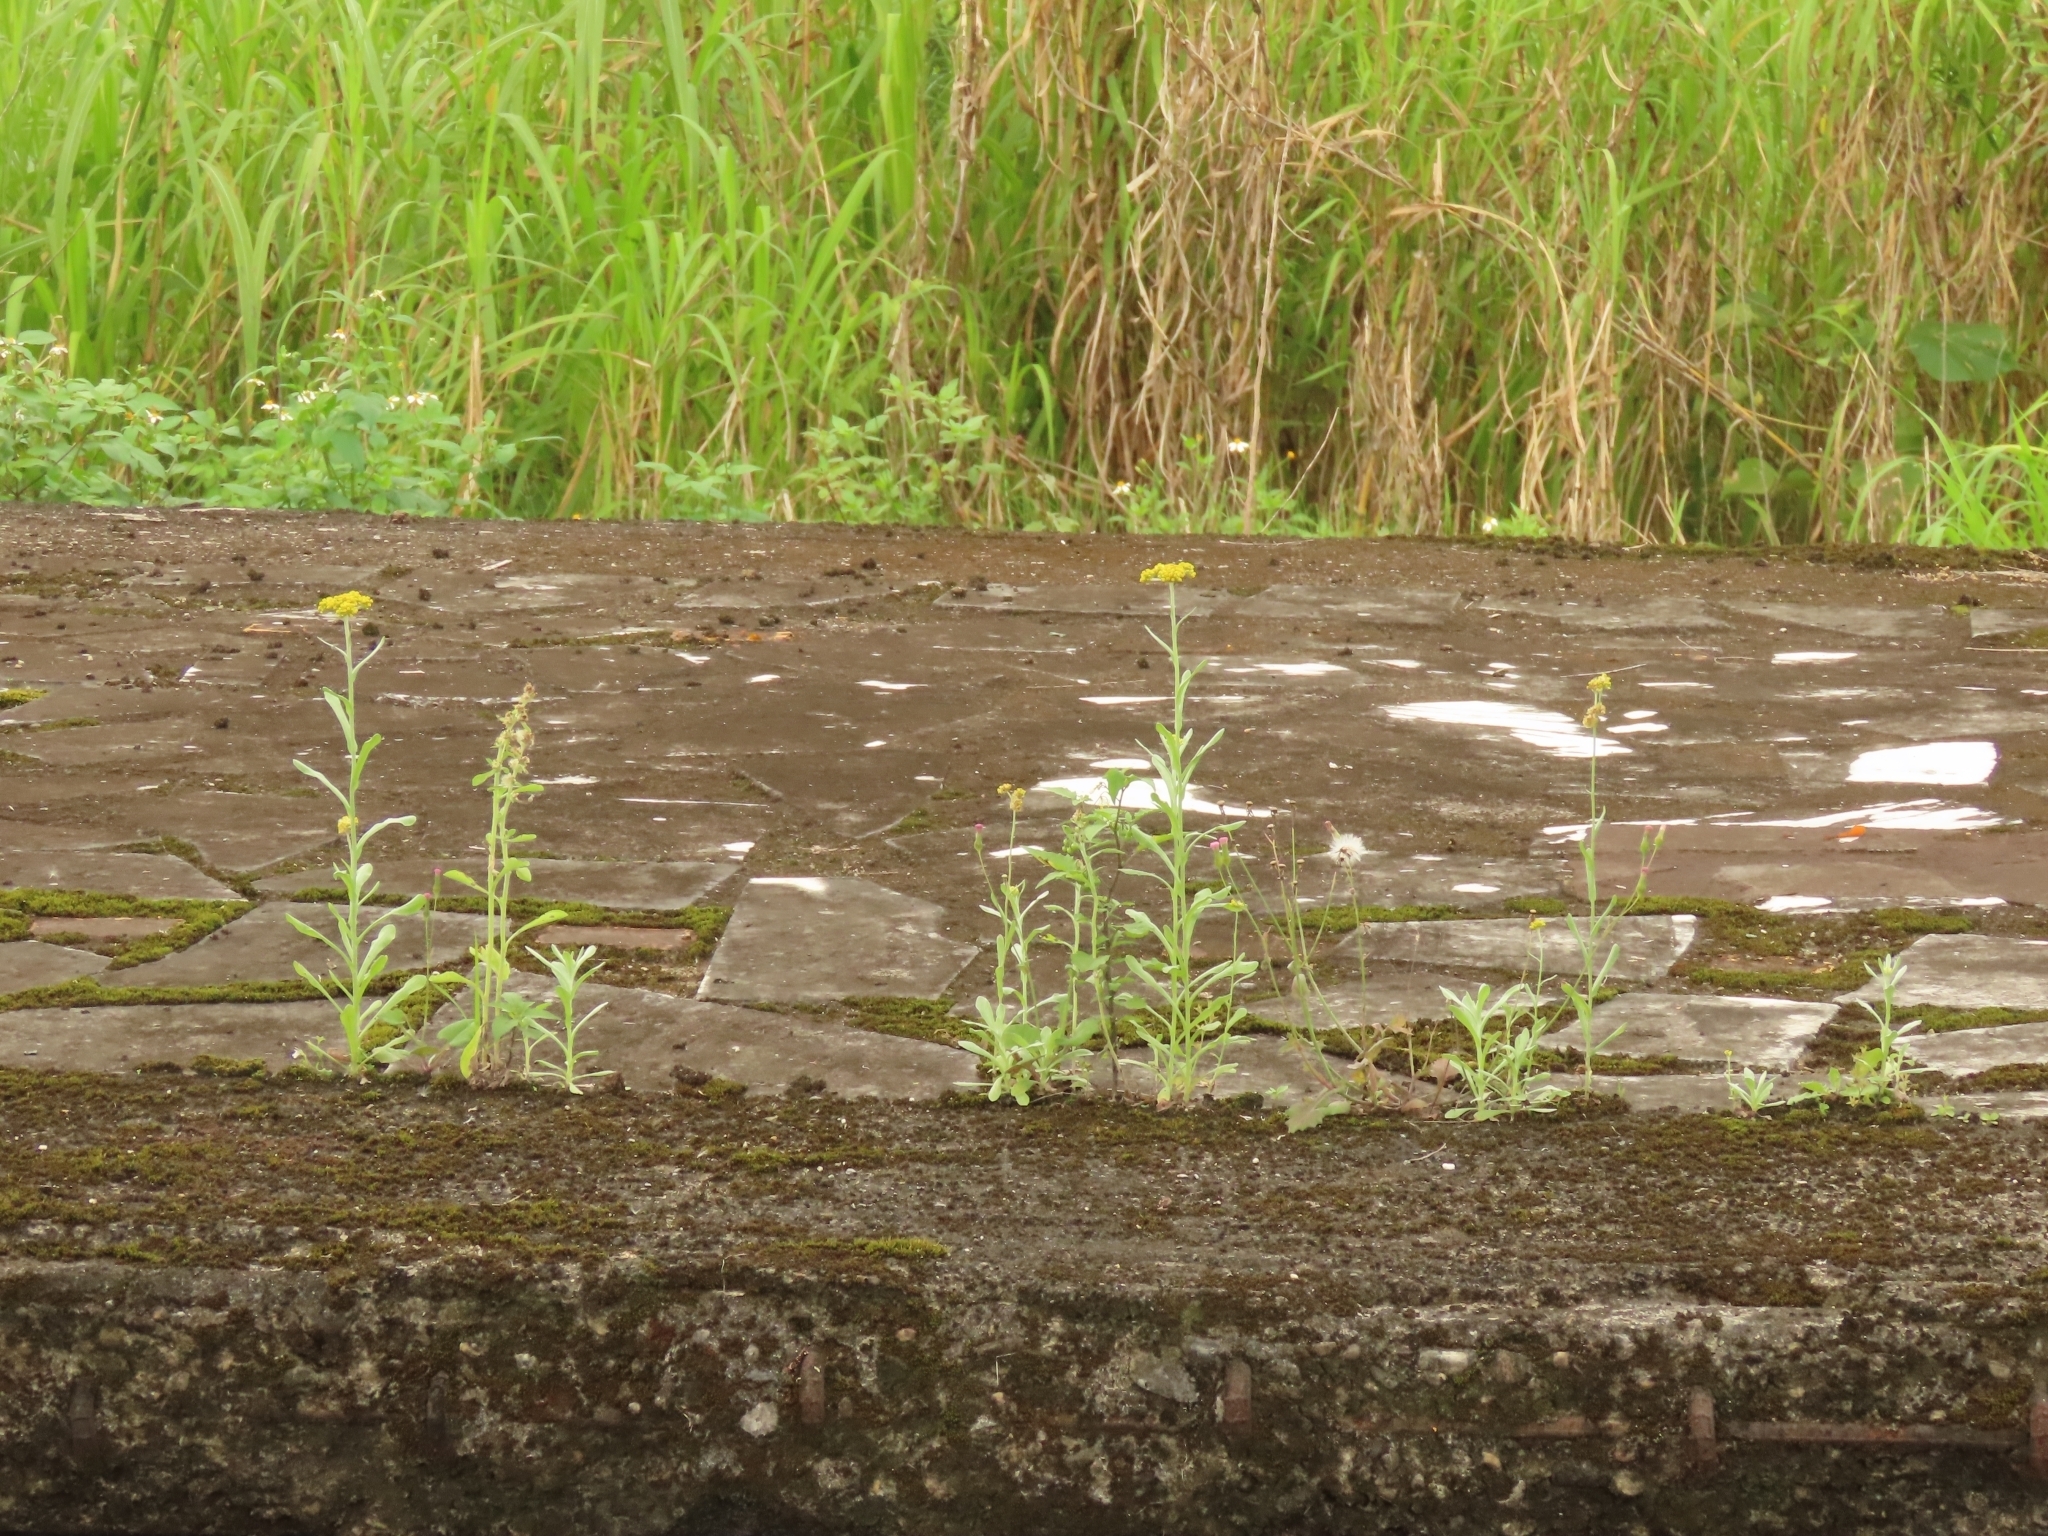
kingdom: Plantae
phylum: Tracheophyta
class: Magnoliopsida
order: Asterales
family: Asteraceae
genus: Gamochaeta
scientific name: Gamochaeta purpurea
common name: Purple cudweed
